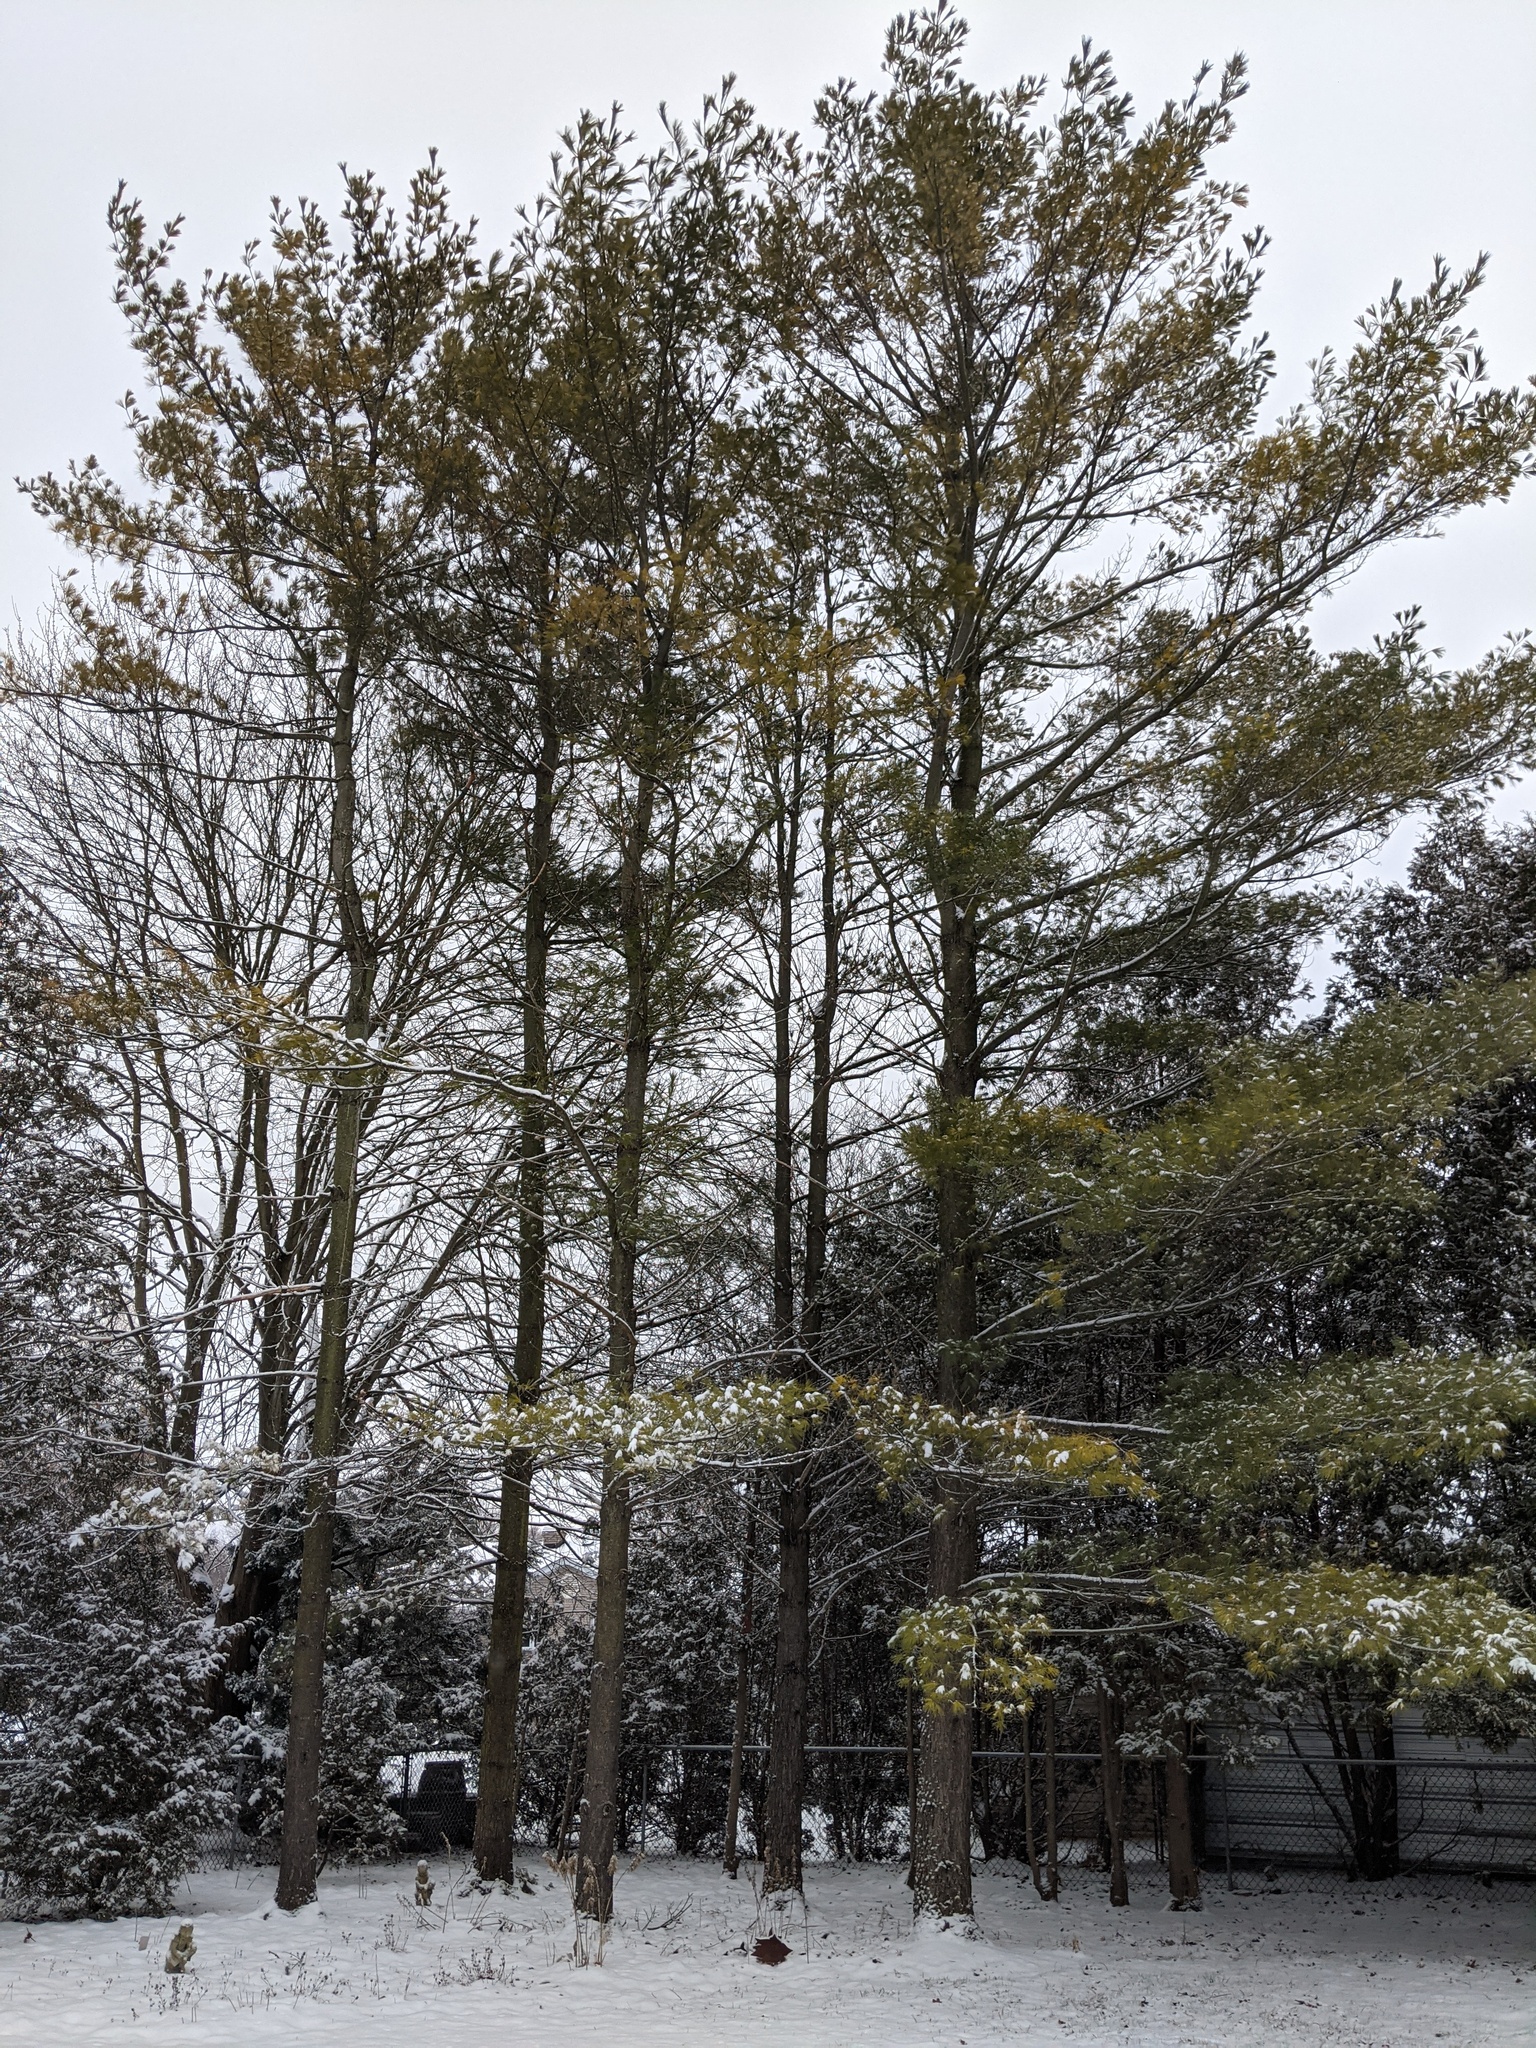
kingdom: Plantae
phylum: Tracheophyta
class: Pinopsida
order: Pinales
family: Pinaceae
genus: Pinus
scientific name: Pinus strobus
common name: Weymouth pine
